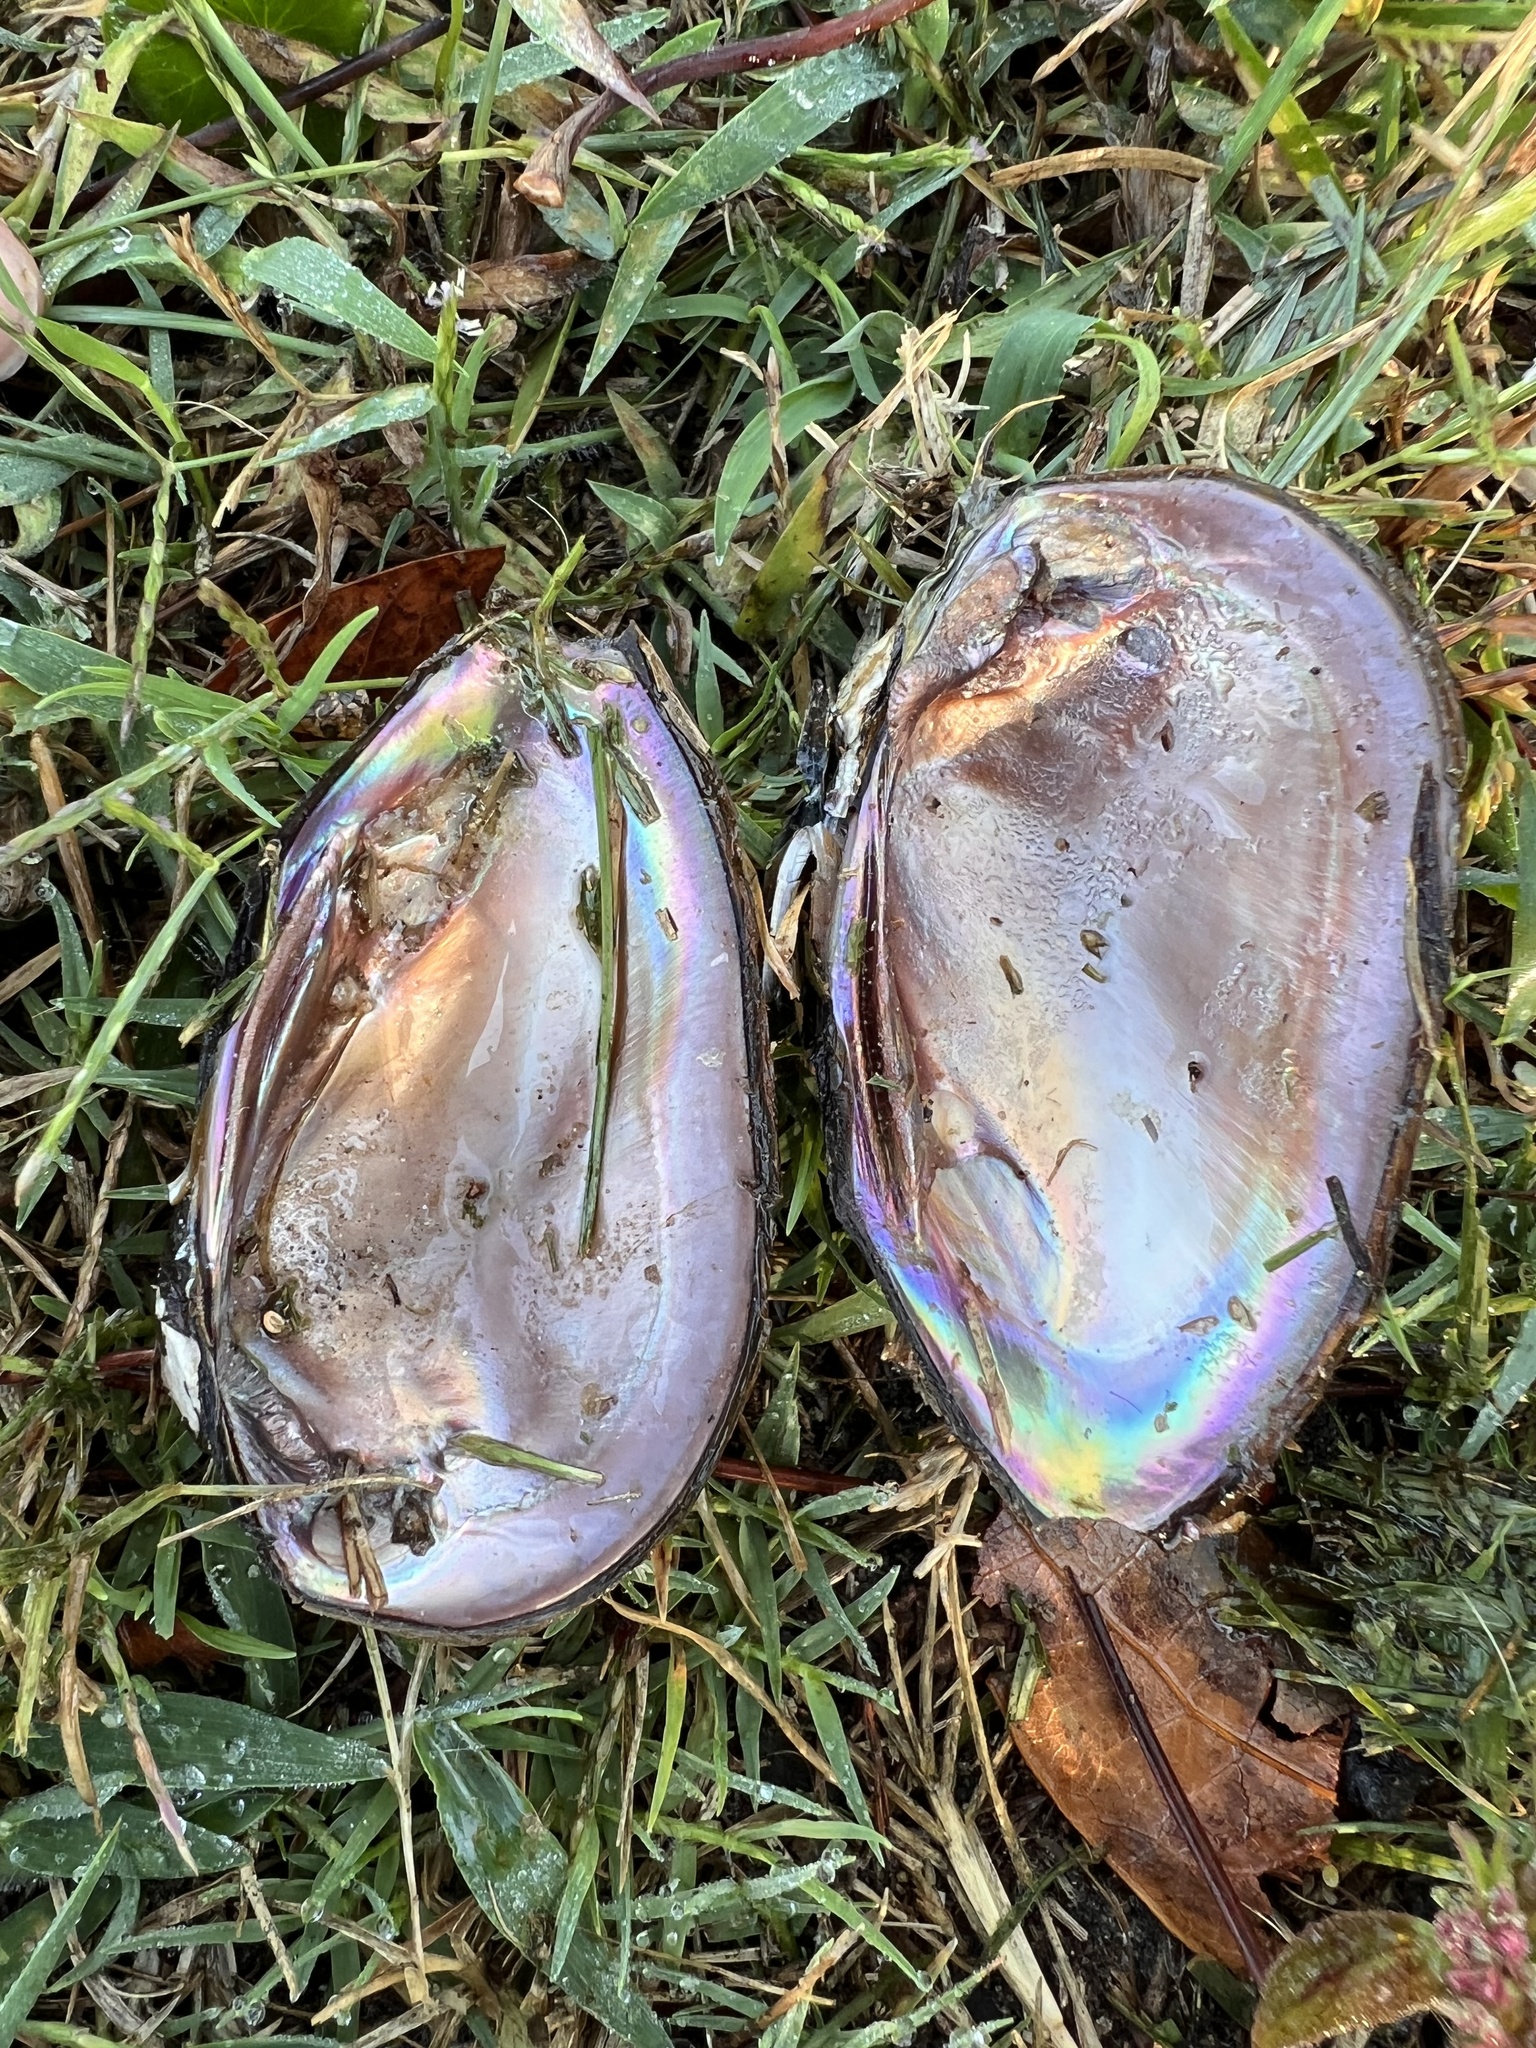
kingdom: Animalia
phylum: Mollusca
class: Bivalvia
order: Unionida
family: Unionidae
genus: Elliptio
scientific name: Elliptio jayensis
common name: Florida spike
